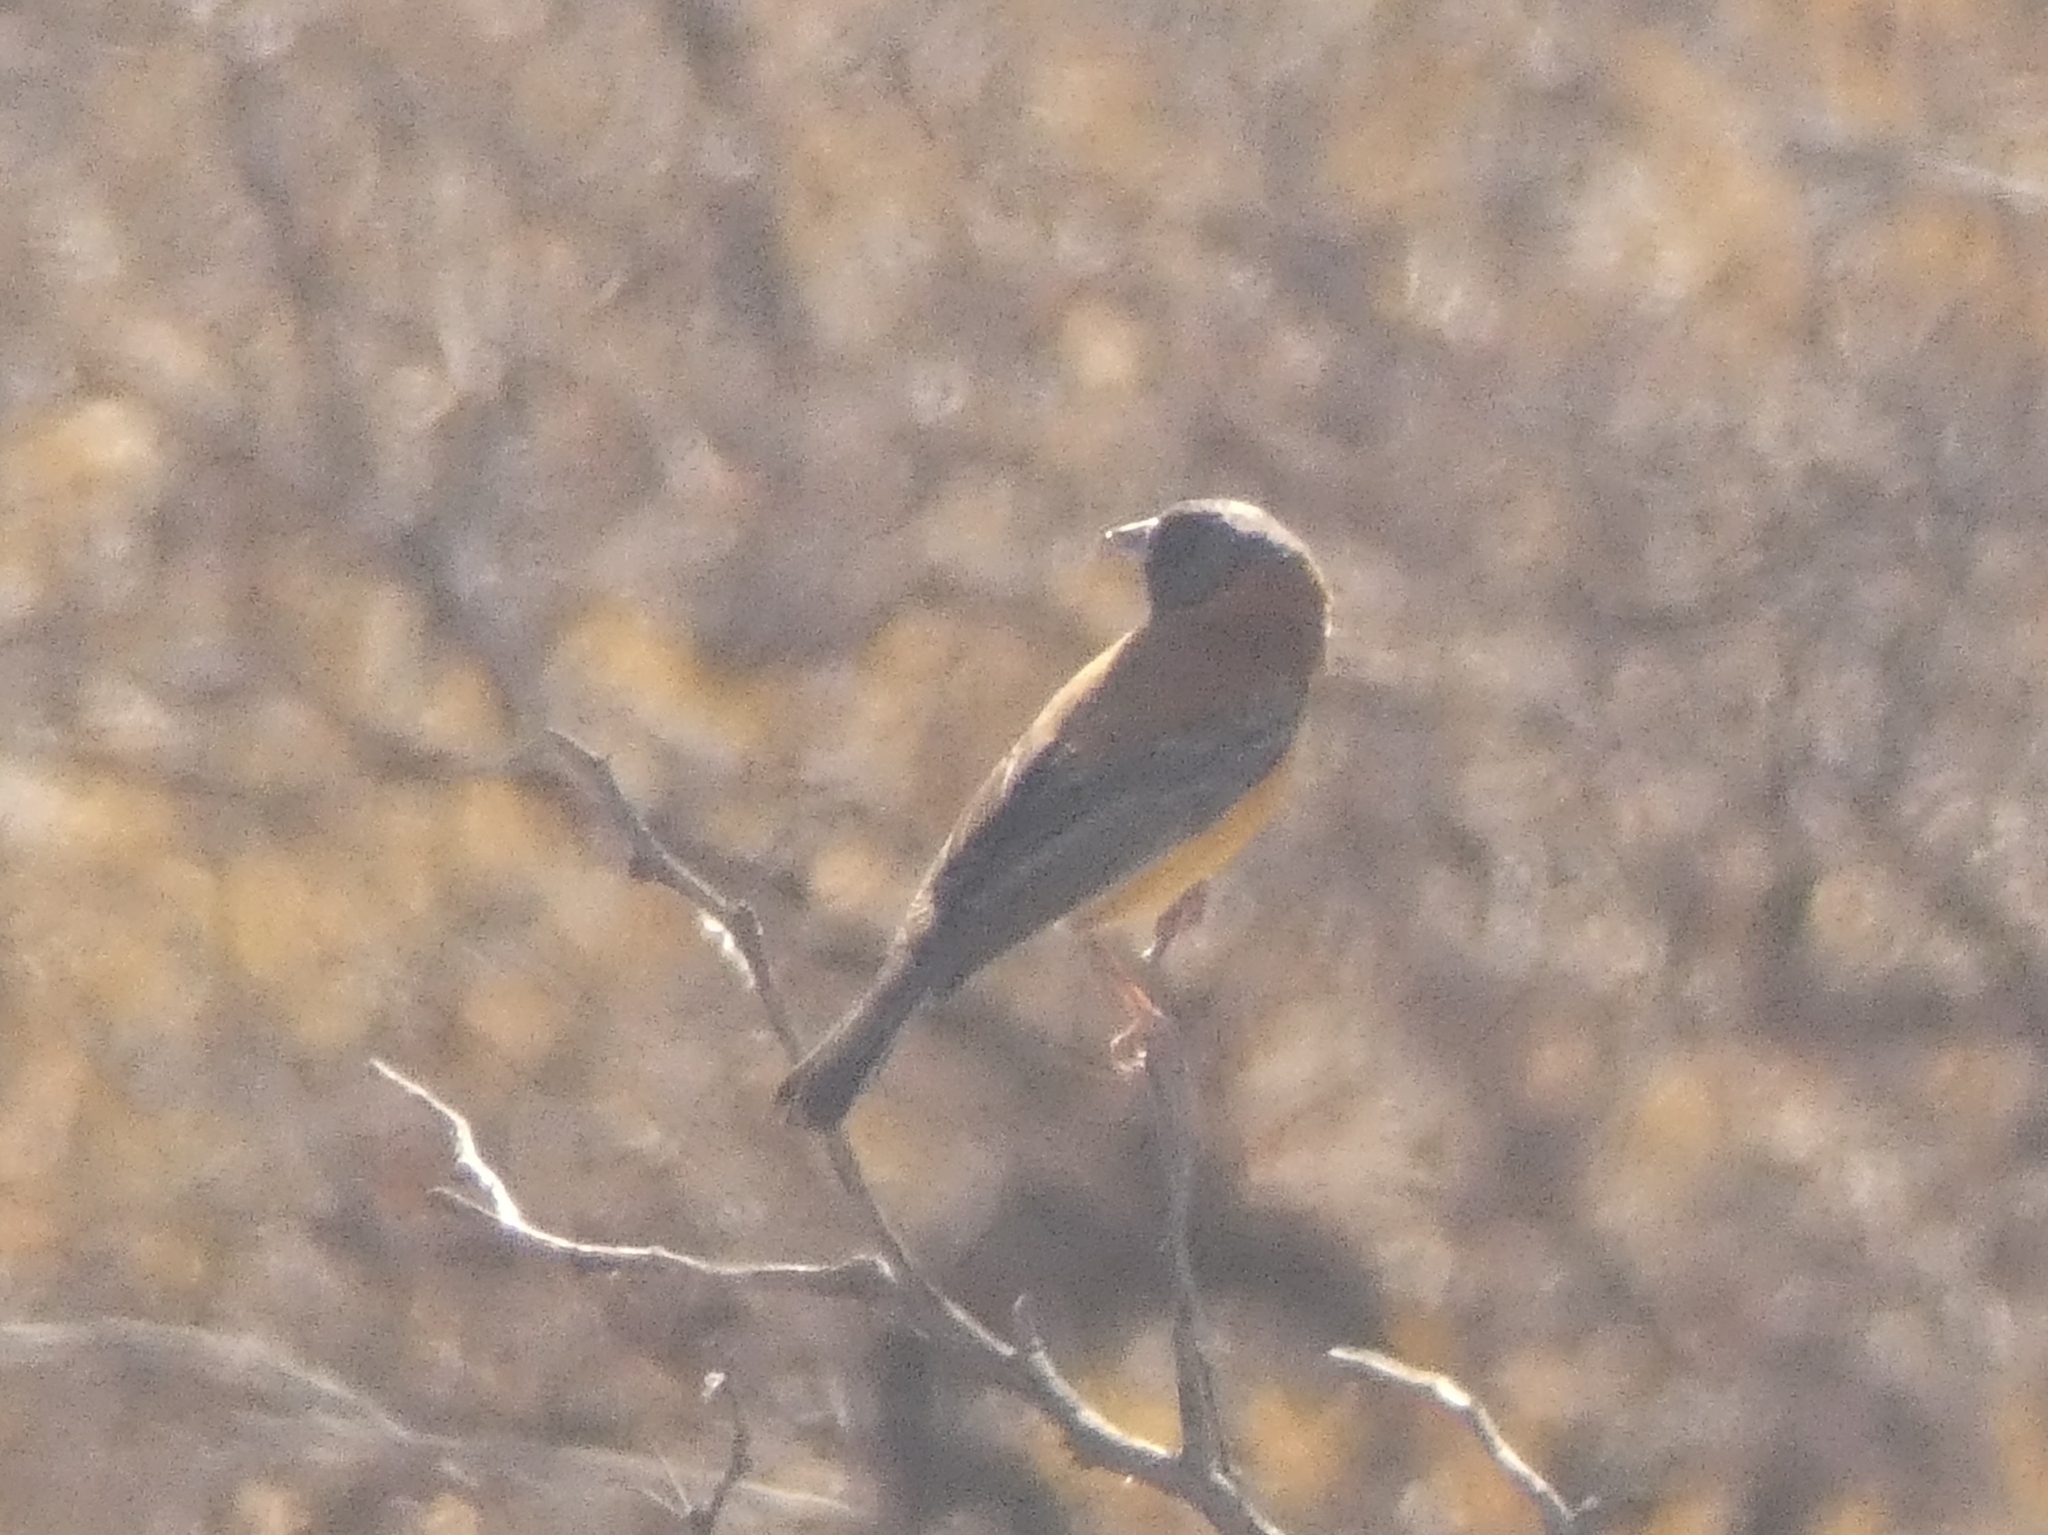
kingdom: Animalia
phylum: Chordata
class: Aves
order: Passeriformes
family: Thraupidae
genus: Phrygilus
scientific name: Phrygilus atriceps
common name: Black-hooded sierra finch
